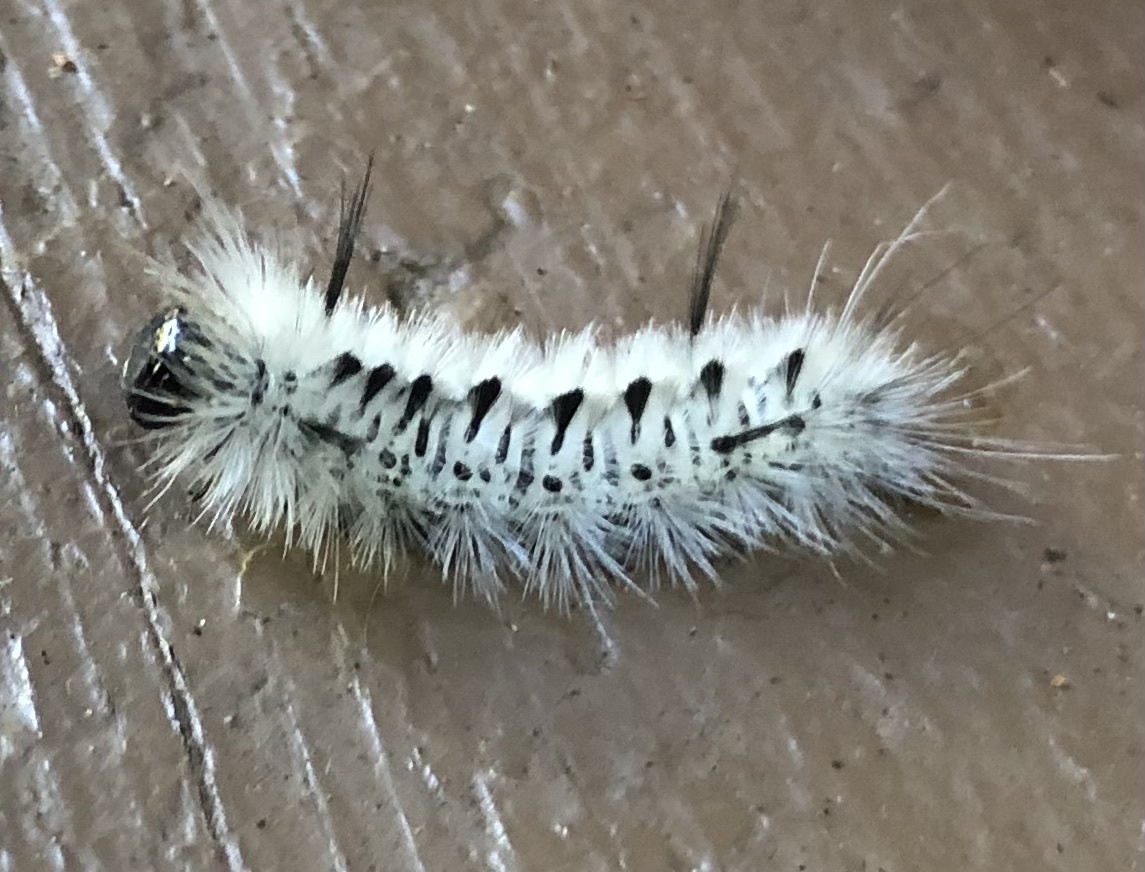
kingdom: Animalia
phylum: Arthropoda
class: Insecta
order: Lepidoptera
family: Erebidae
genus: Lophocampa
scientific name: Lophocampa caryae
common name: Hickory tussock moth
